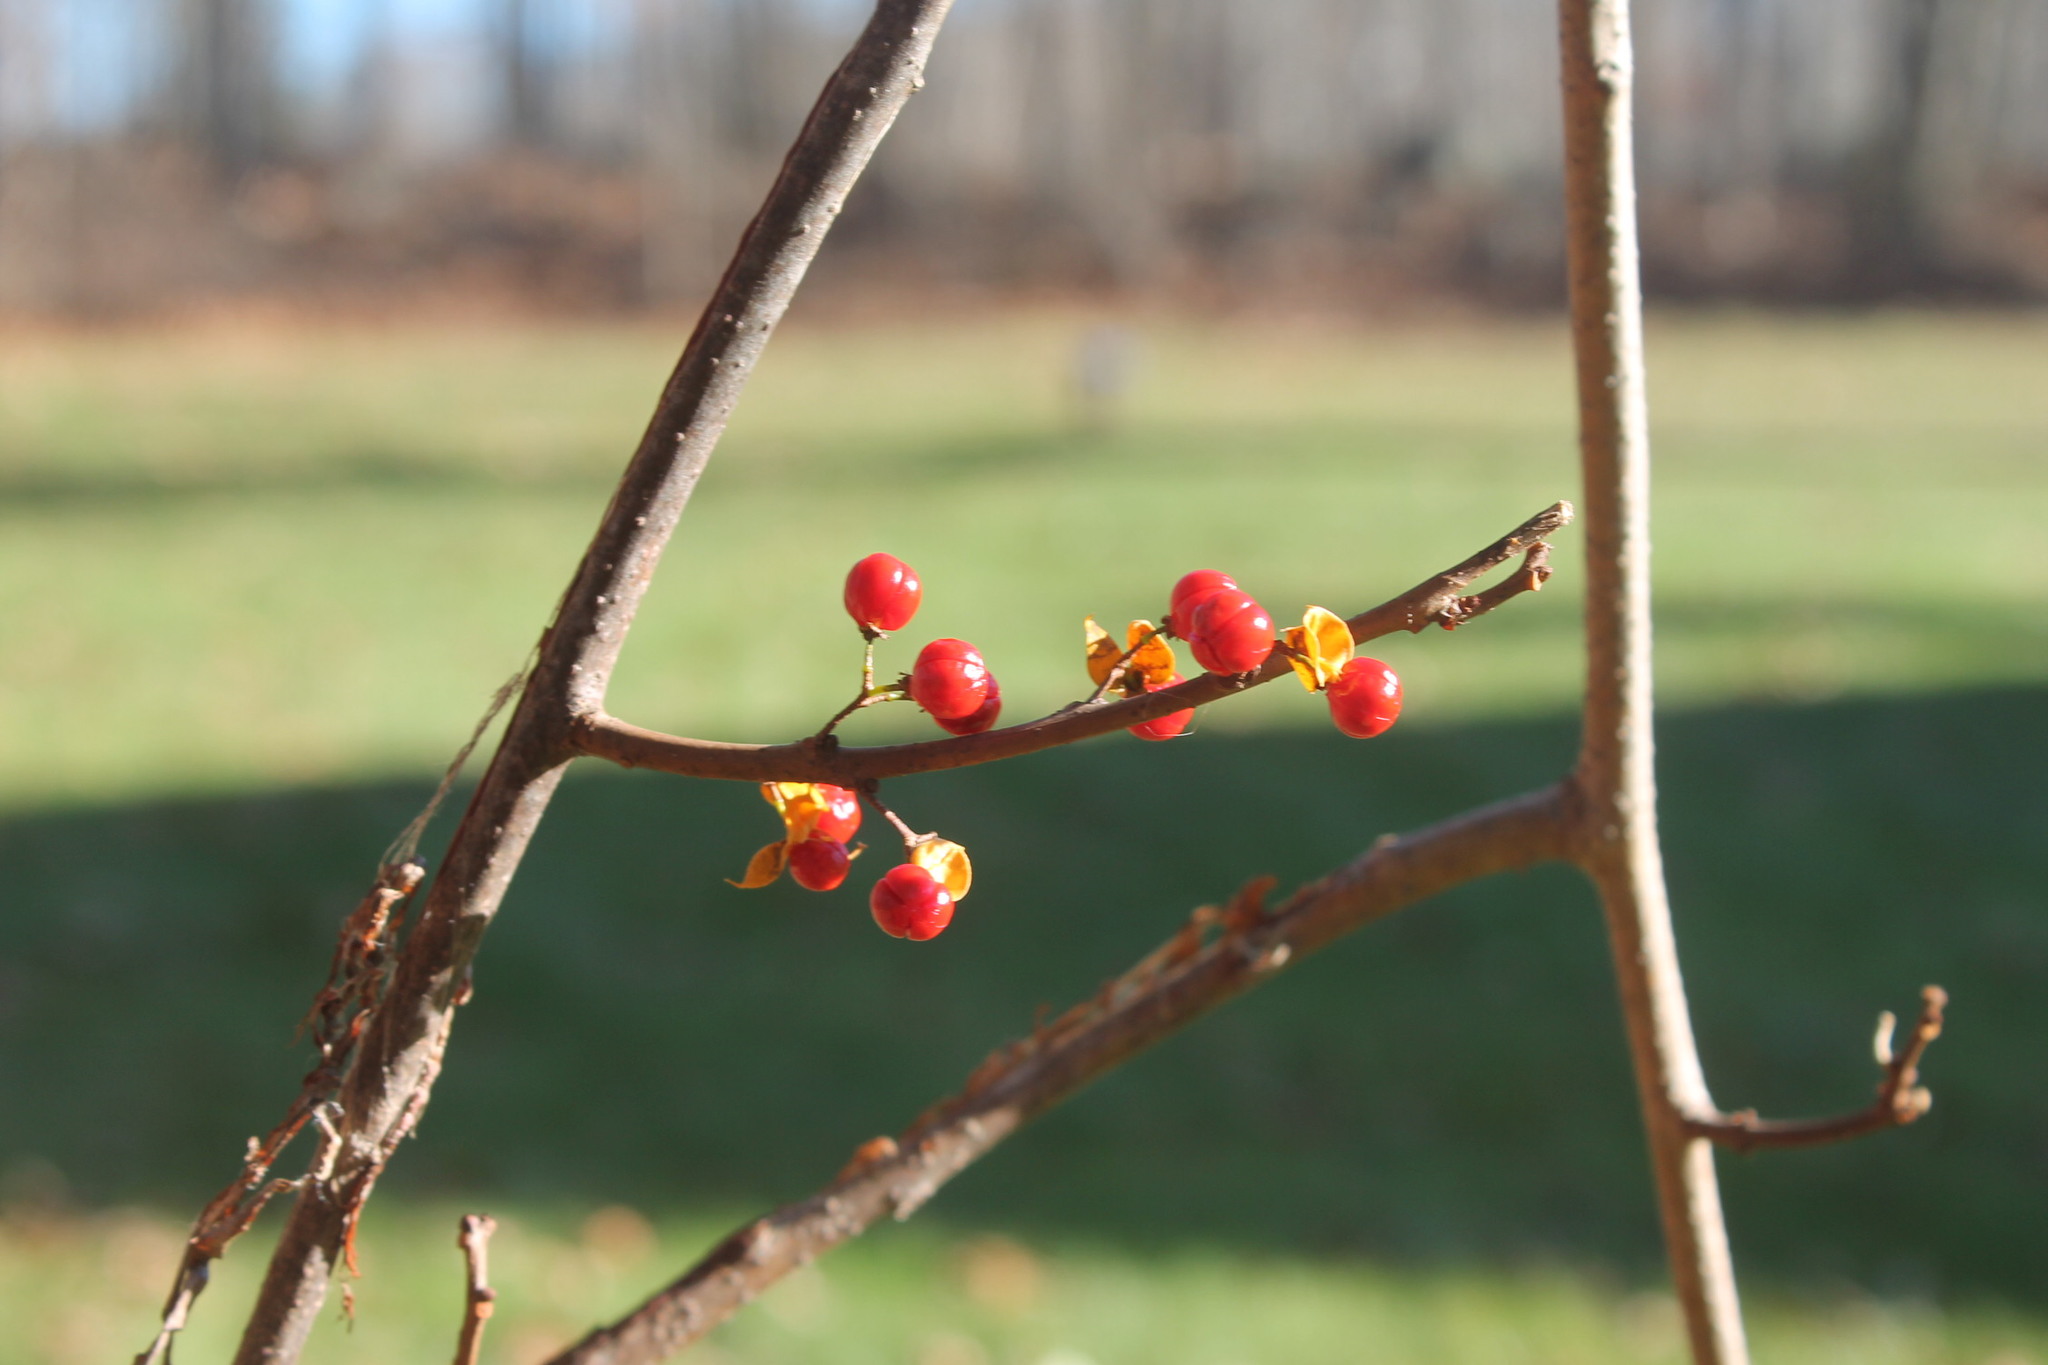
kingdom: Plantae
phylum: Tracheophyta
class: Magnoliopsida
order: Celastrales
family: Celastraceae
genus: Celastrus
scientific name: Celastrus orbiculatus
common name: Oriental bittersweet
